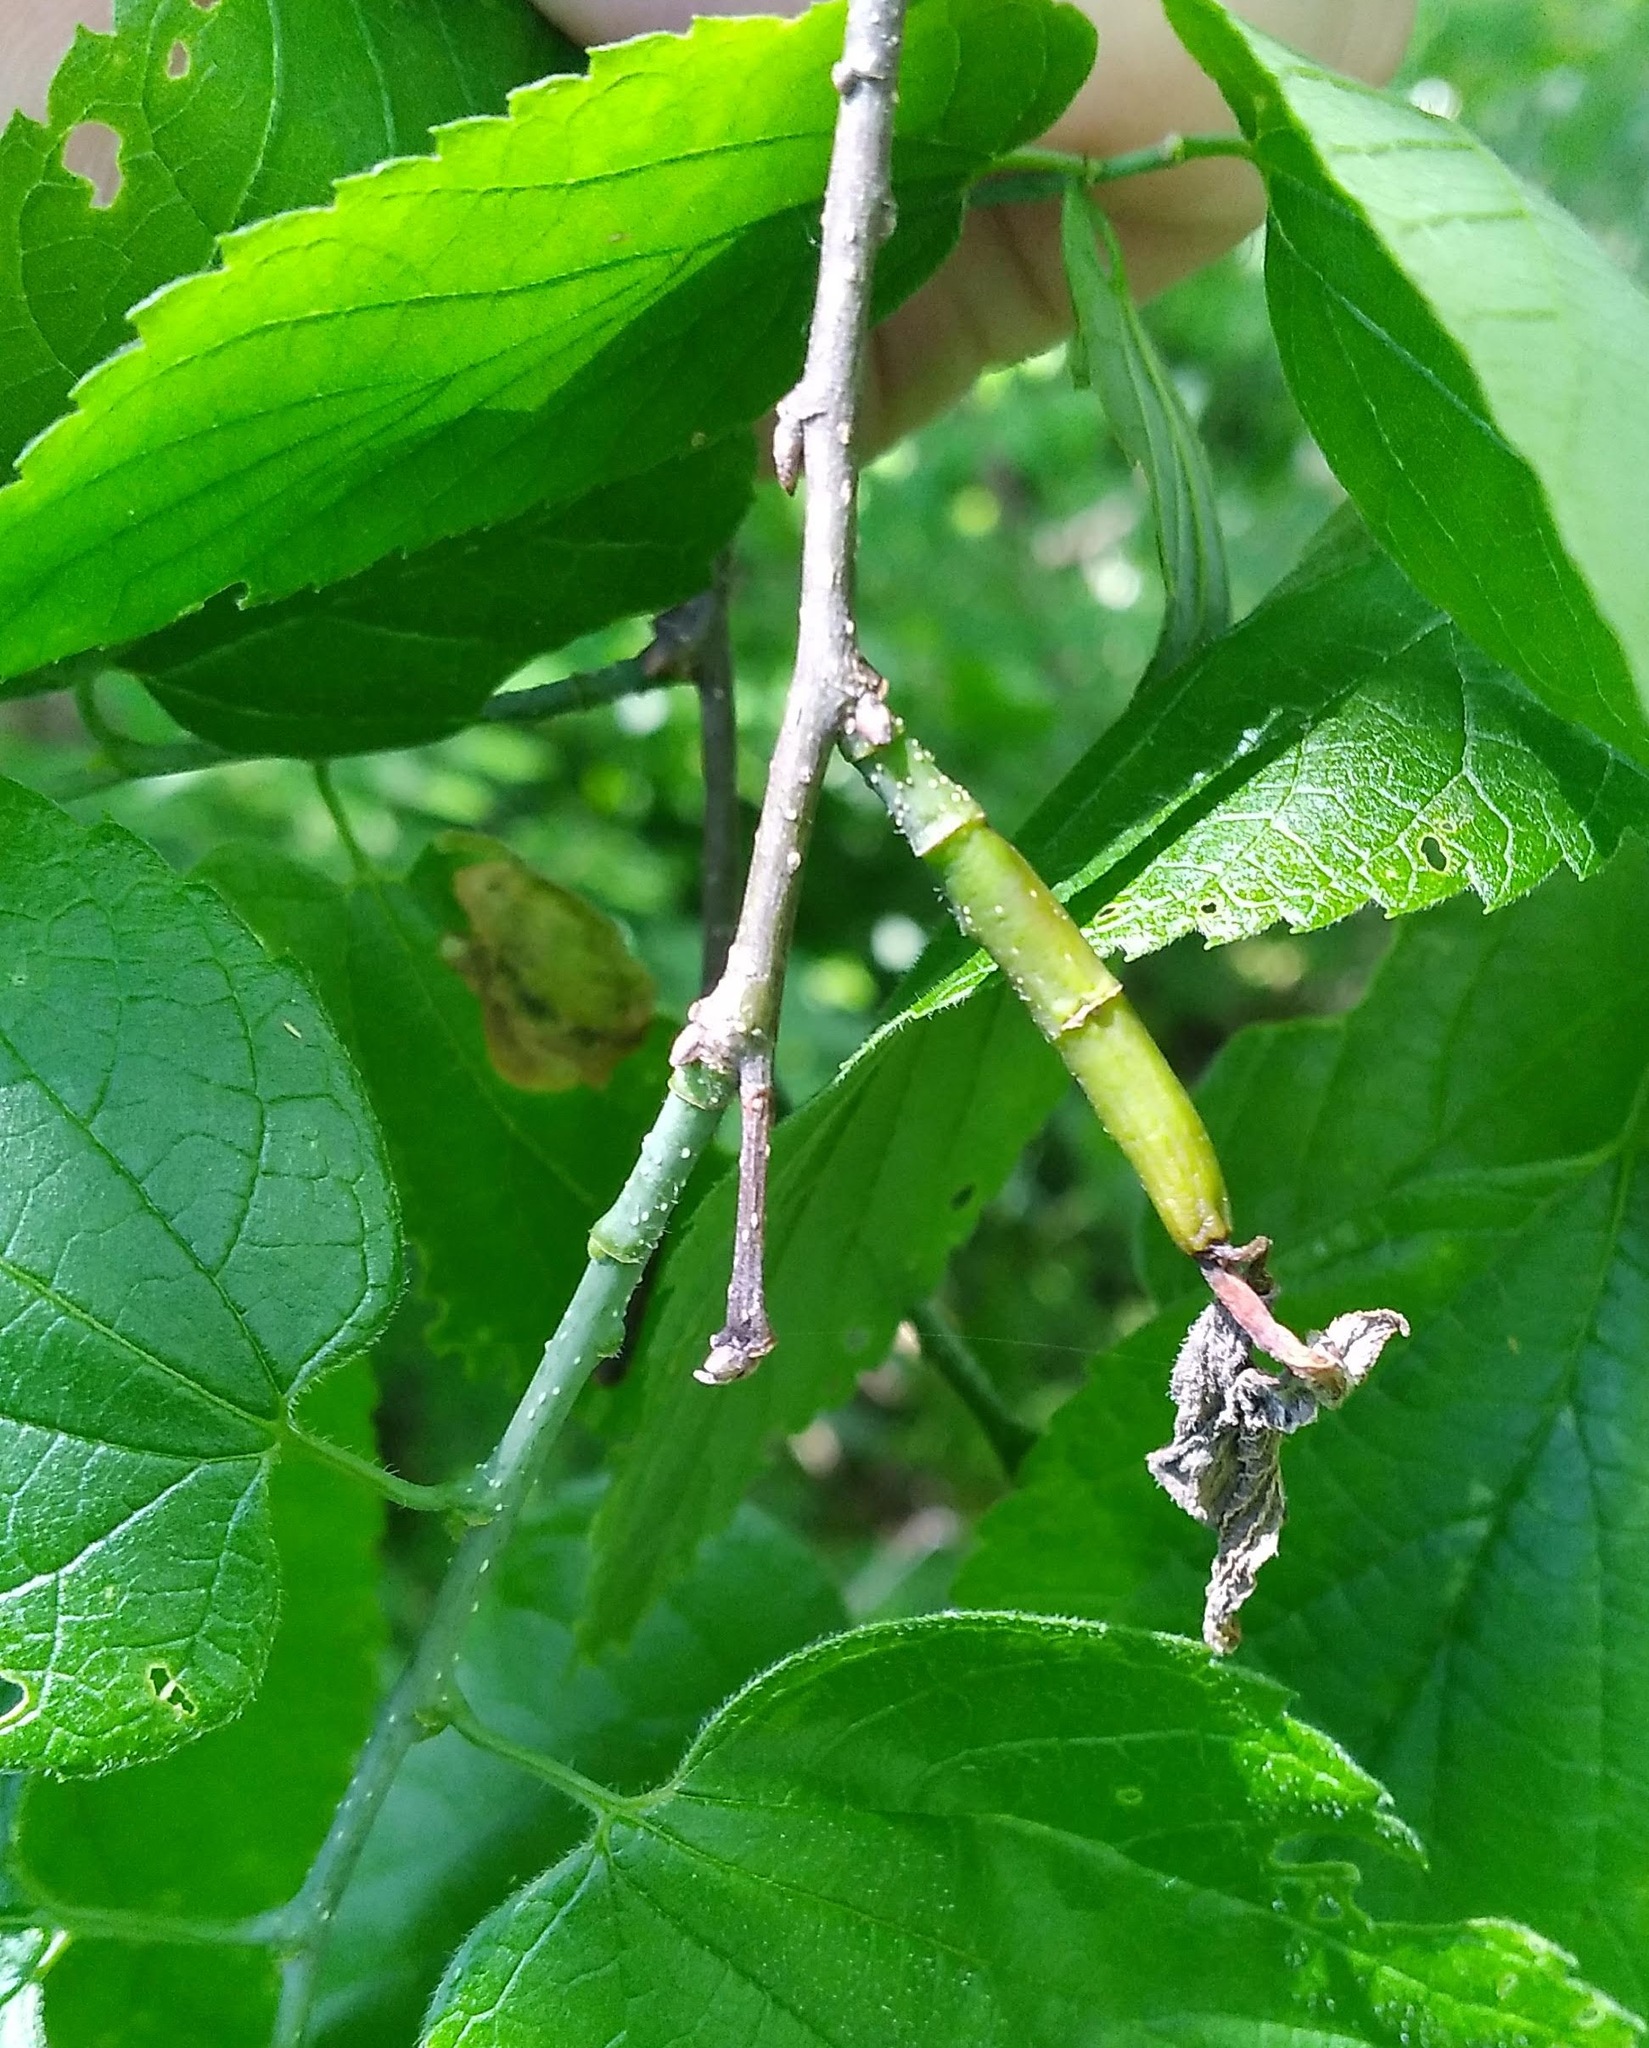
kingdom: Animalia
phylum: Arthropoda
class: Insecta
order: Diptera
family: Agromyzidae
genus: Agromyza
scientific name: Agromyza deserta
